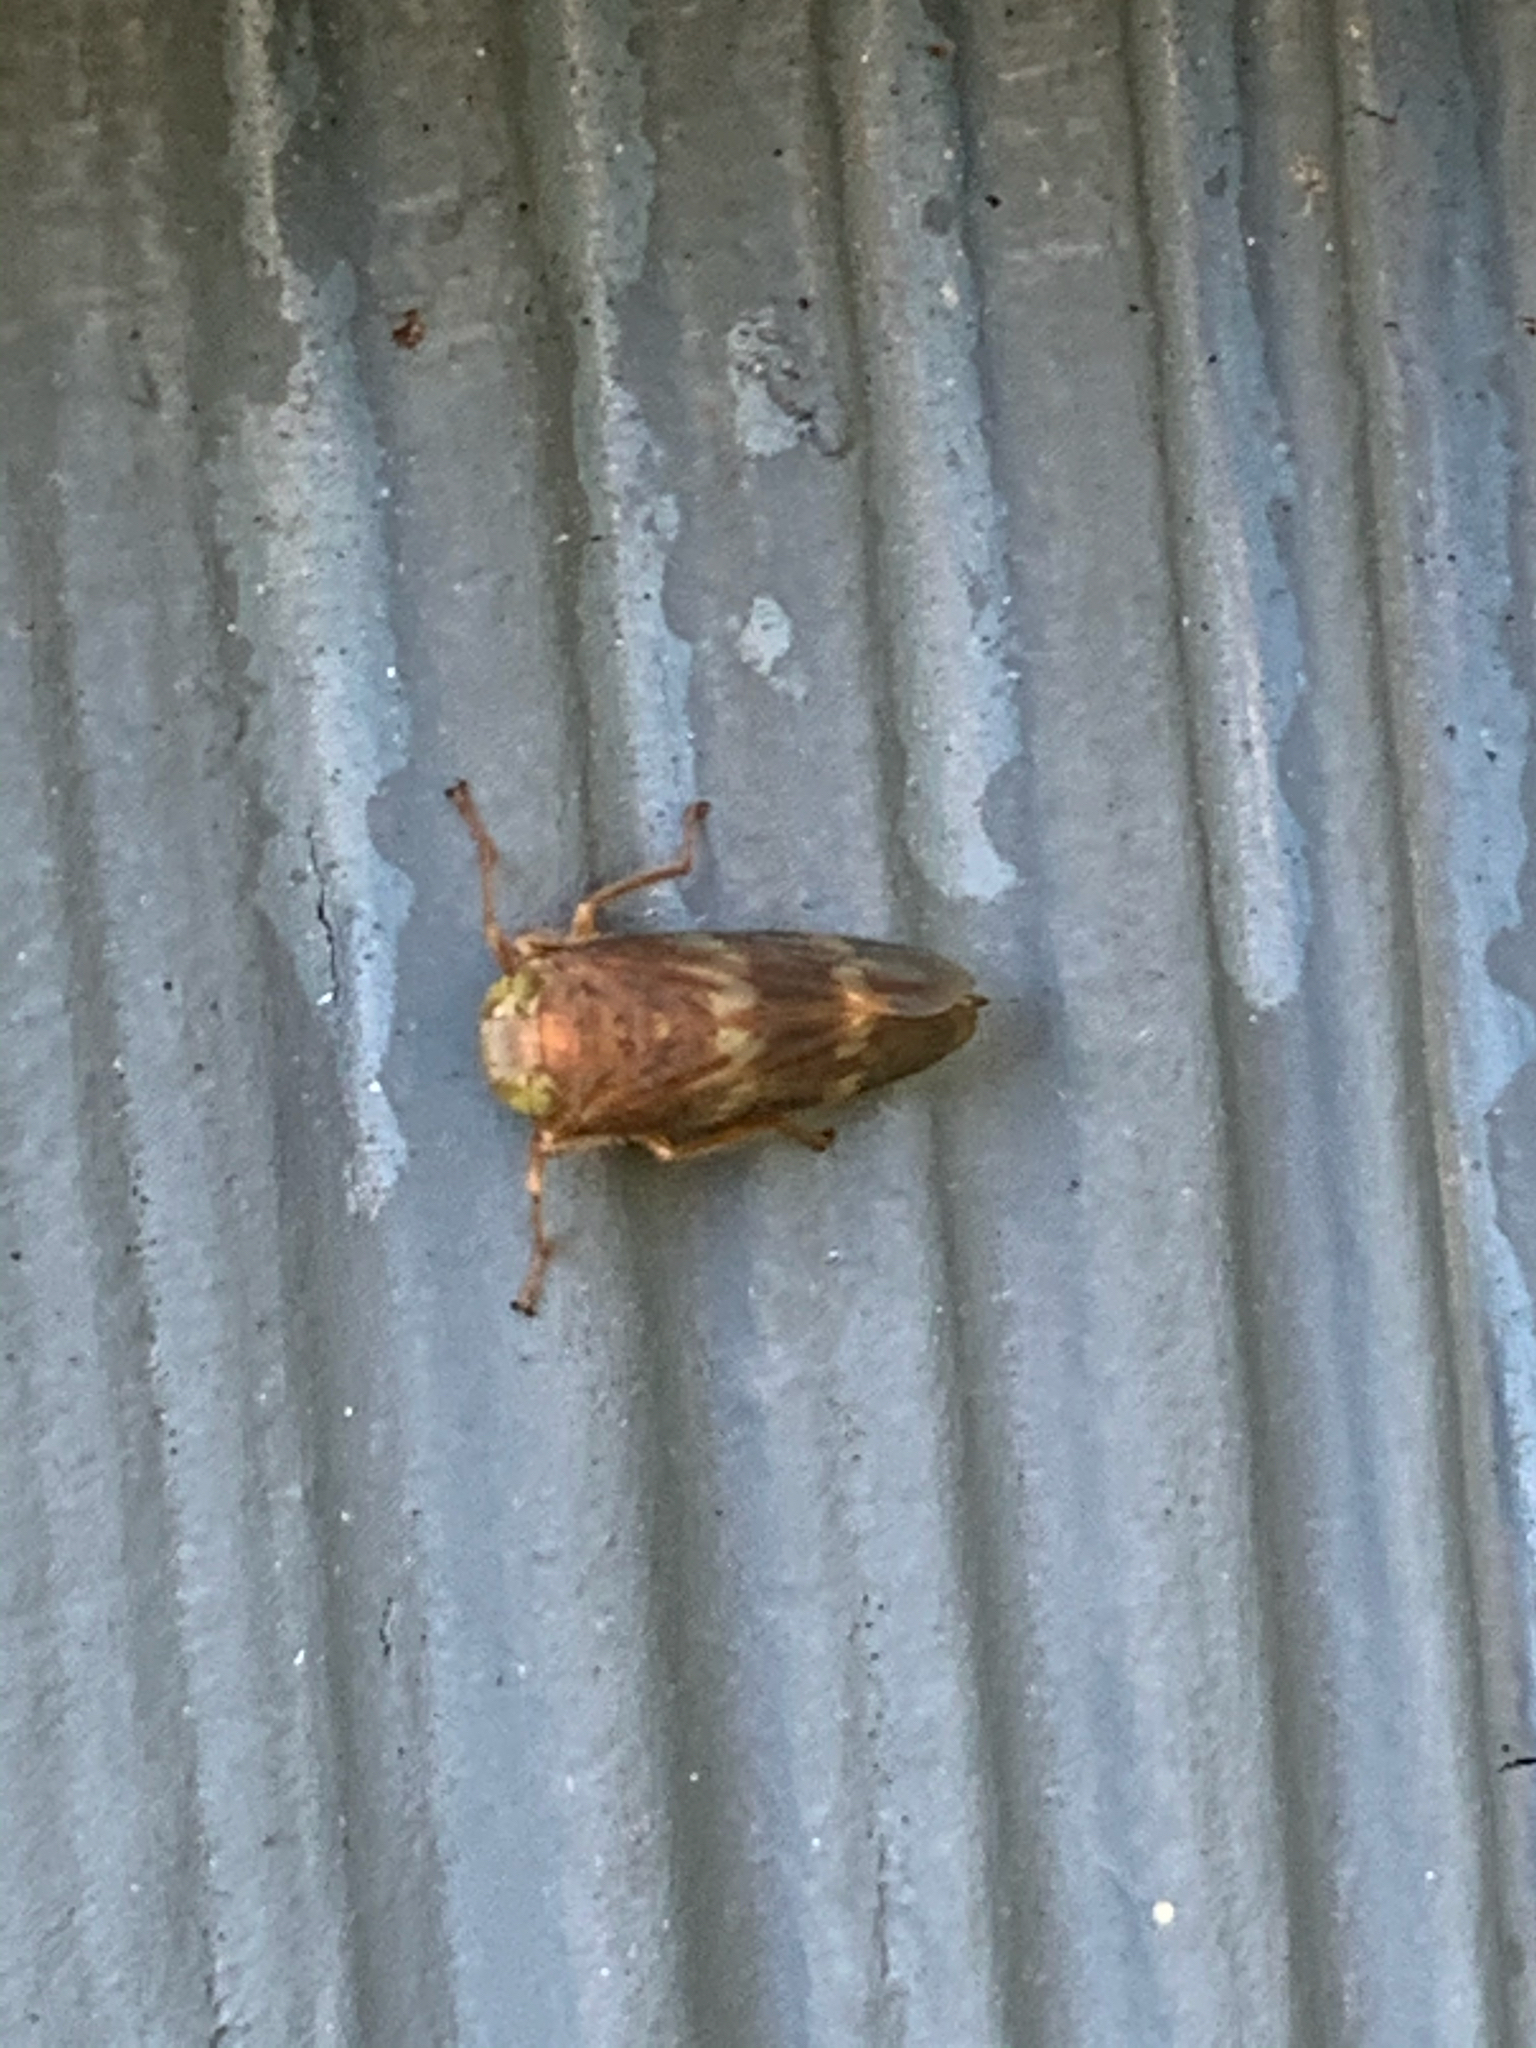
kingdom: Animalia
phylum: Arthropoda
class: Insecta
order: Hemiptera
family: Cicadellidae
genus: Jikradia
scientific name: Jikradia olitoria
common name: Coppery leafhopper
